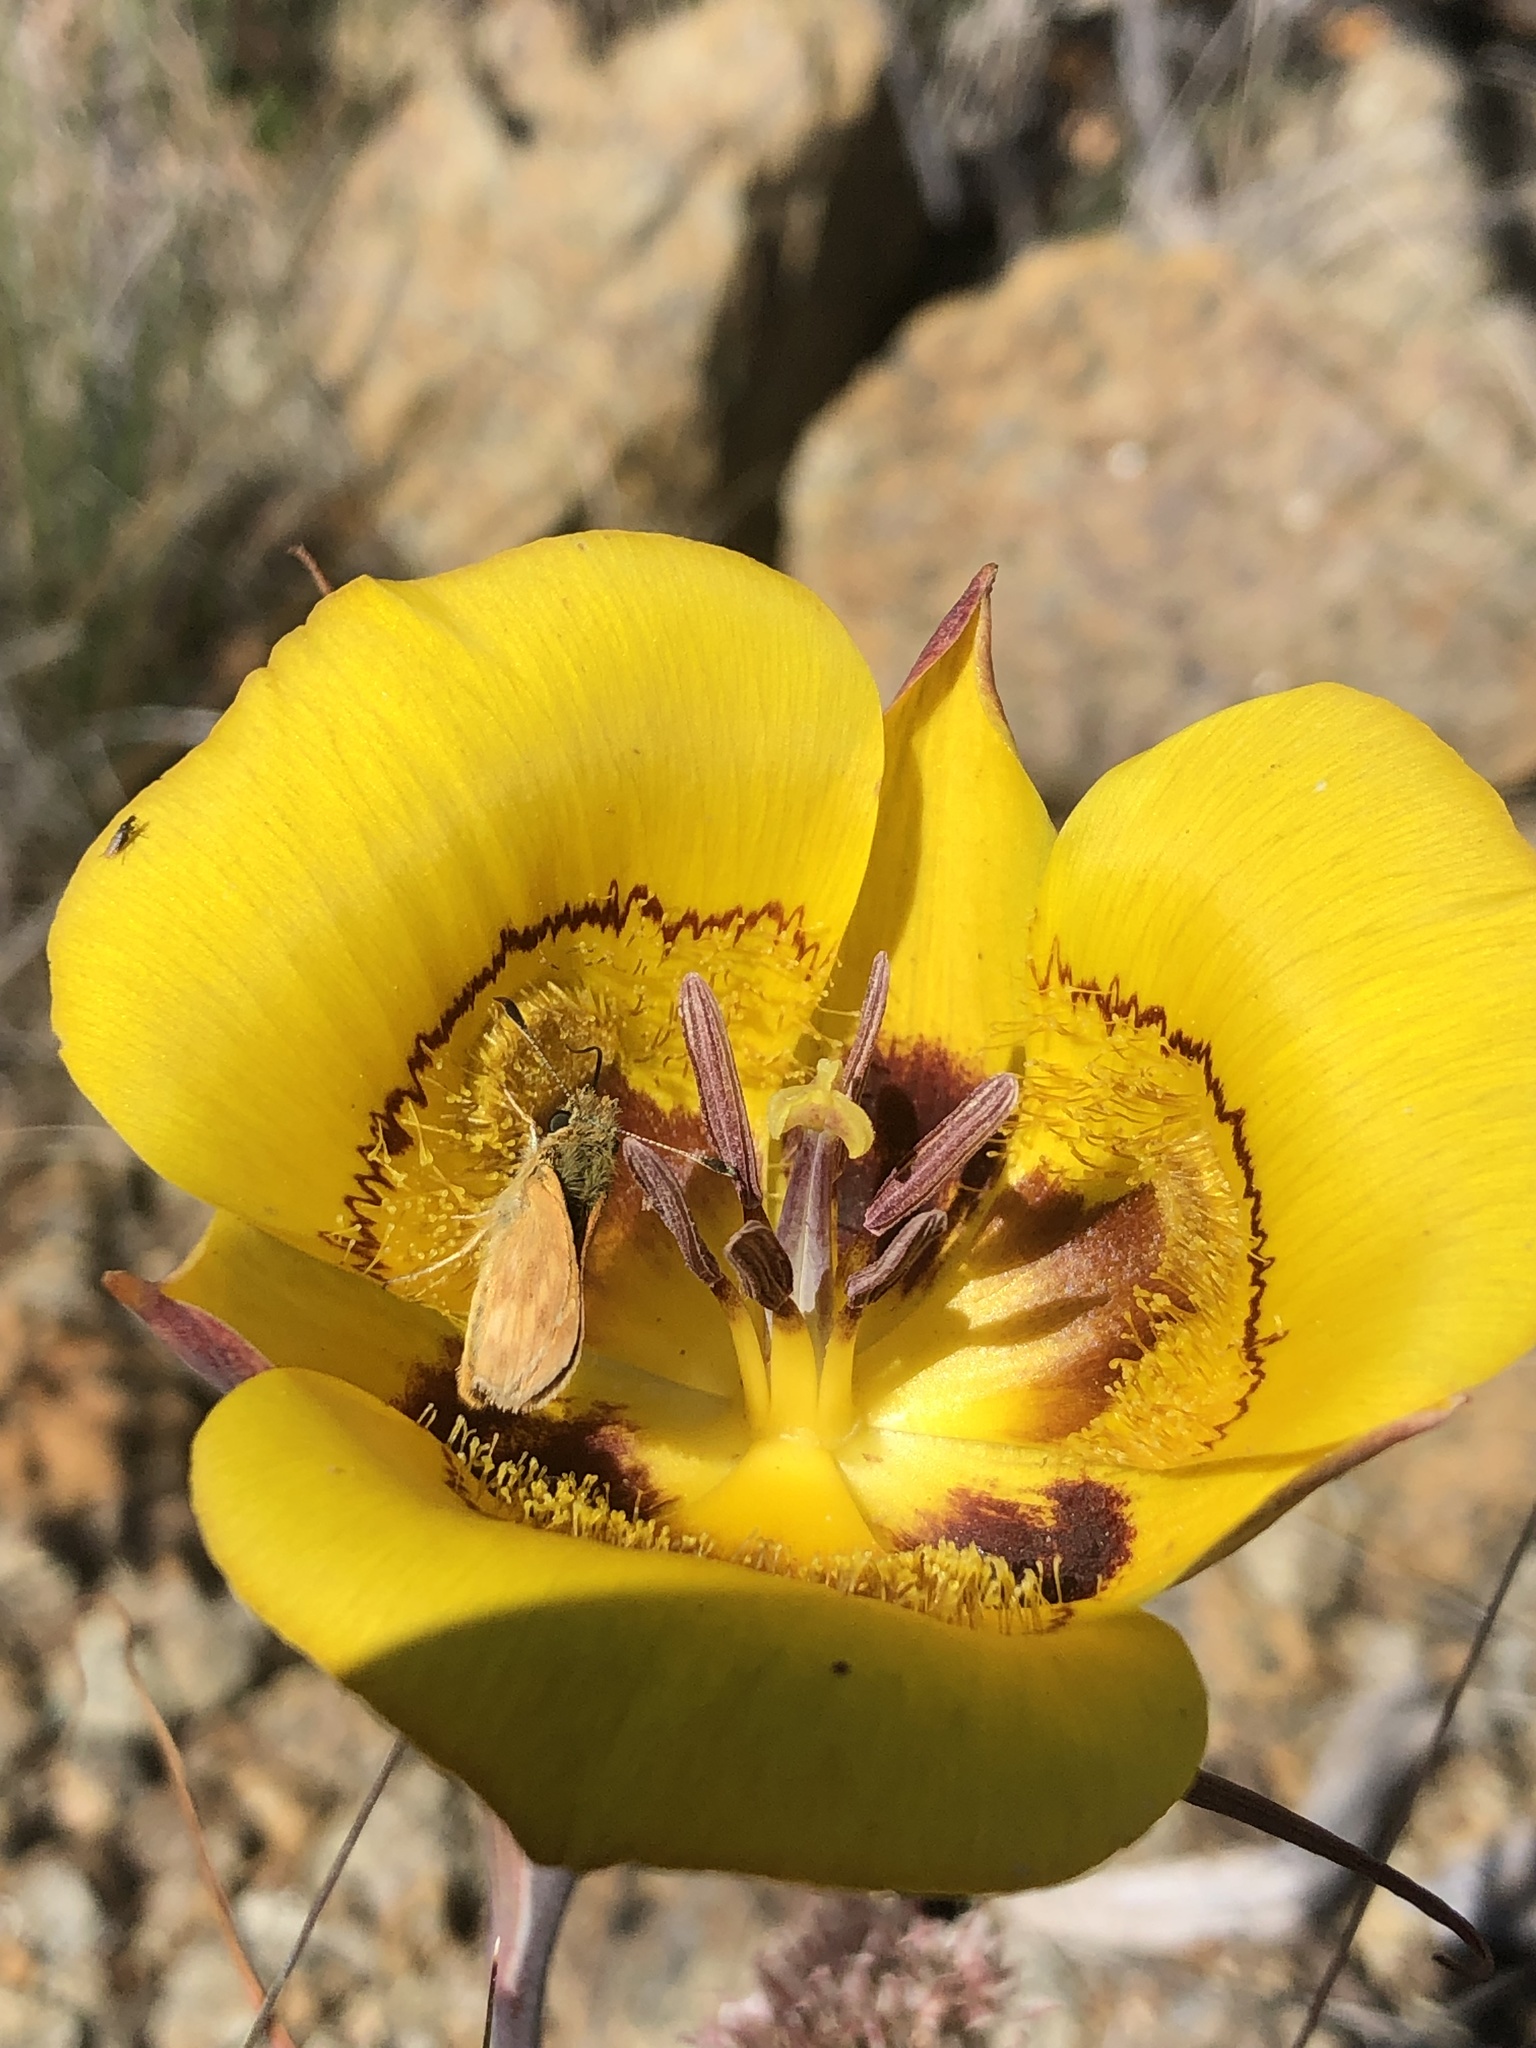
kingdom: Plantae
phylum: Tracheophyta
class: Liliopsida
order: Liliales
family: Liliaceae
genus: Calochortus
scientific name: Calochortus clavatus
